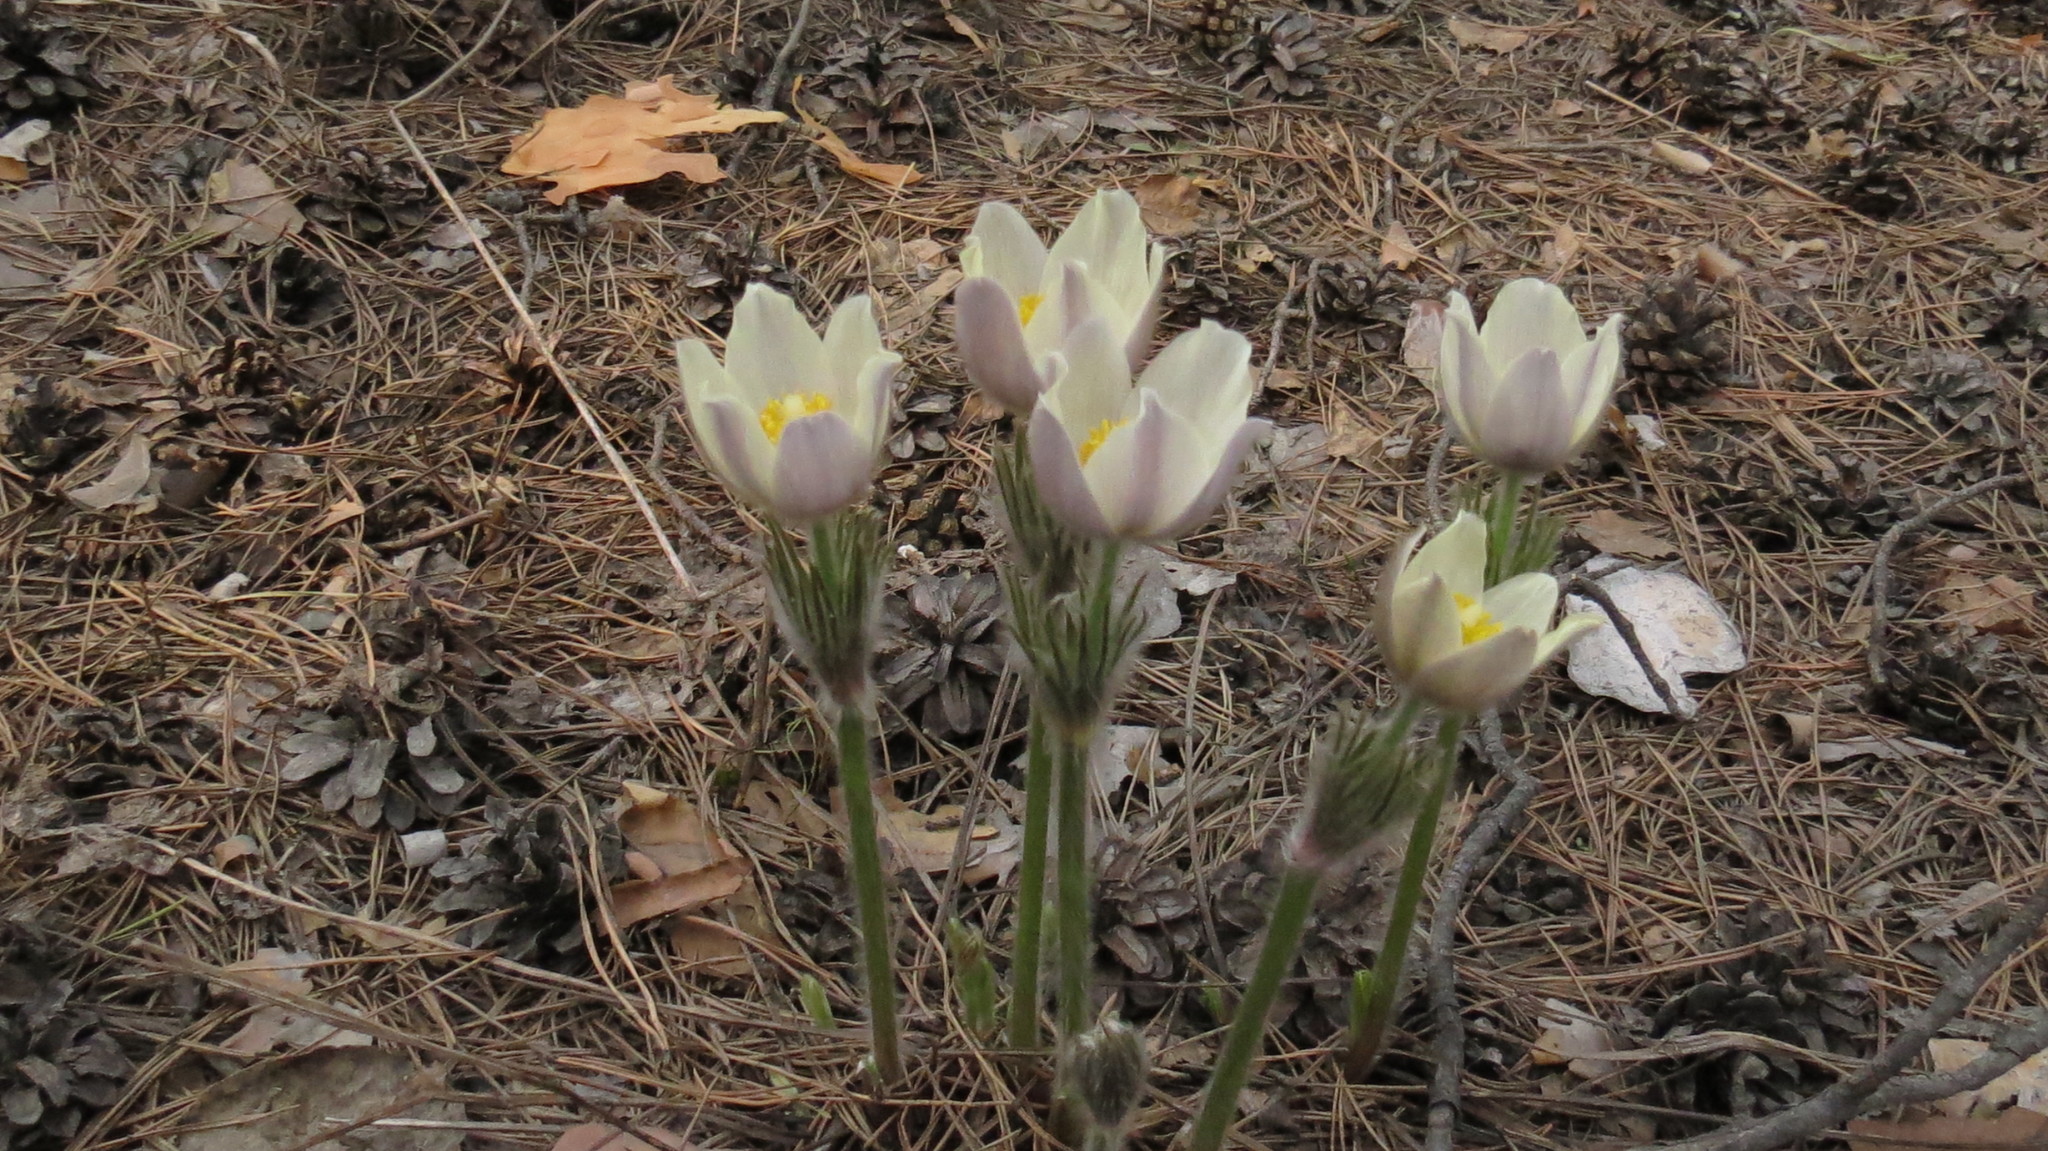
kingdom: Plantae
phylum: Tracheophyta
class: Magnoliopsida
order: Ranunculales
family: Ranunculaceae
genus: Pulsatilla
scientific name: Pulsatilla patens
